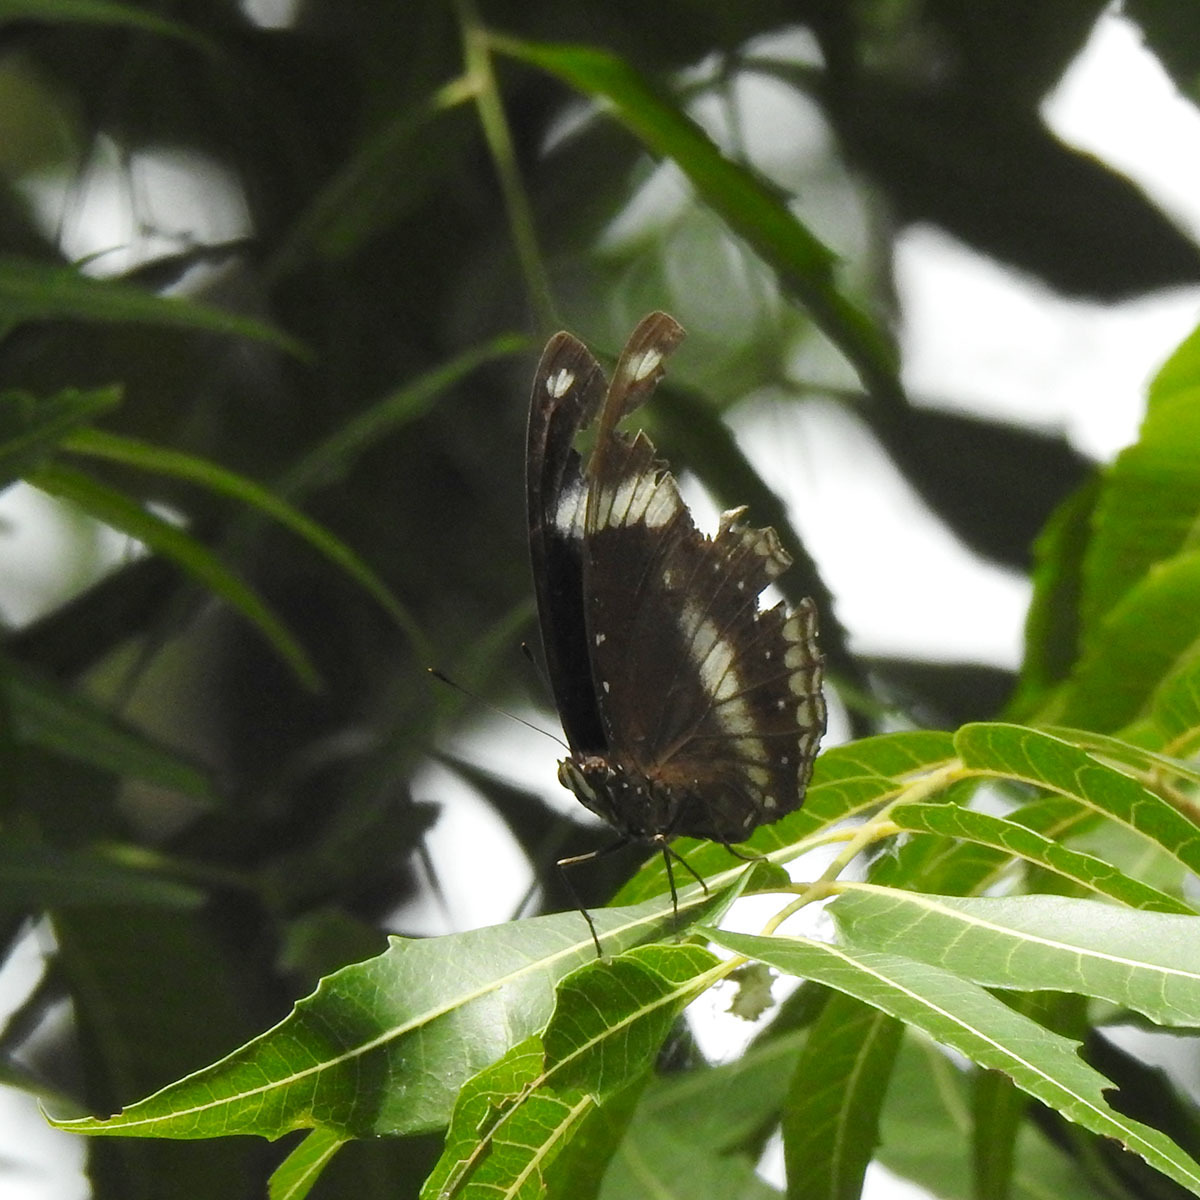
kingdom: Animalia
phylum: Arthropoda
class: Insecta
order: Lepidoptera
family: Nymphalidae
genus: Hypolimnas
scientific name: Hypolimnas bolina
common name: Great eggfly
